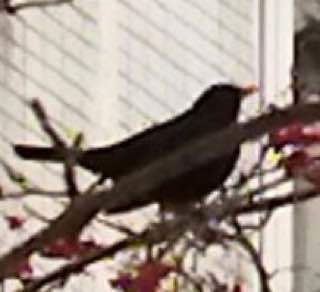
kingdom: Animalia
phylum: Chordata
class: Aves
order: Passeriformes
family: Turdidae
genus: Turdus
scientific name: Turdus merula
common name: Common blackbird
